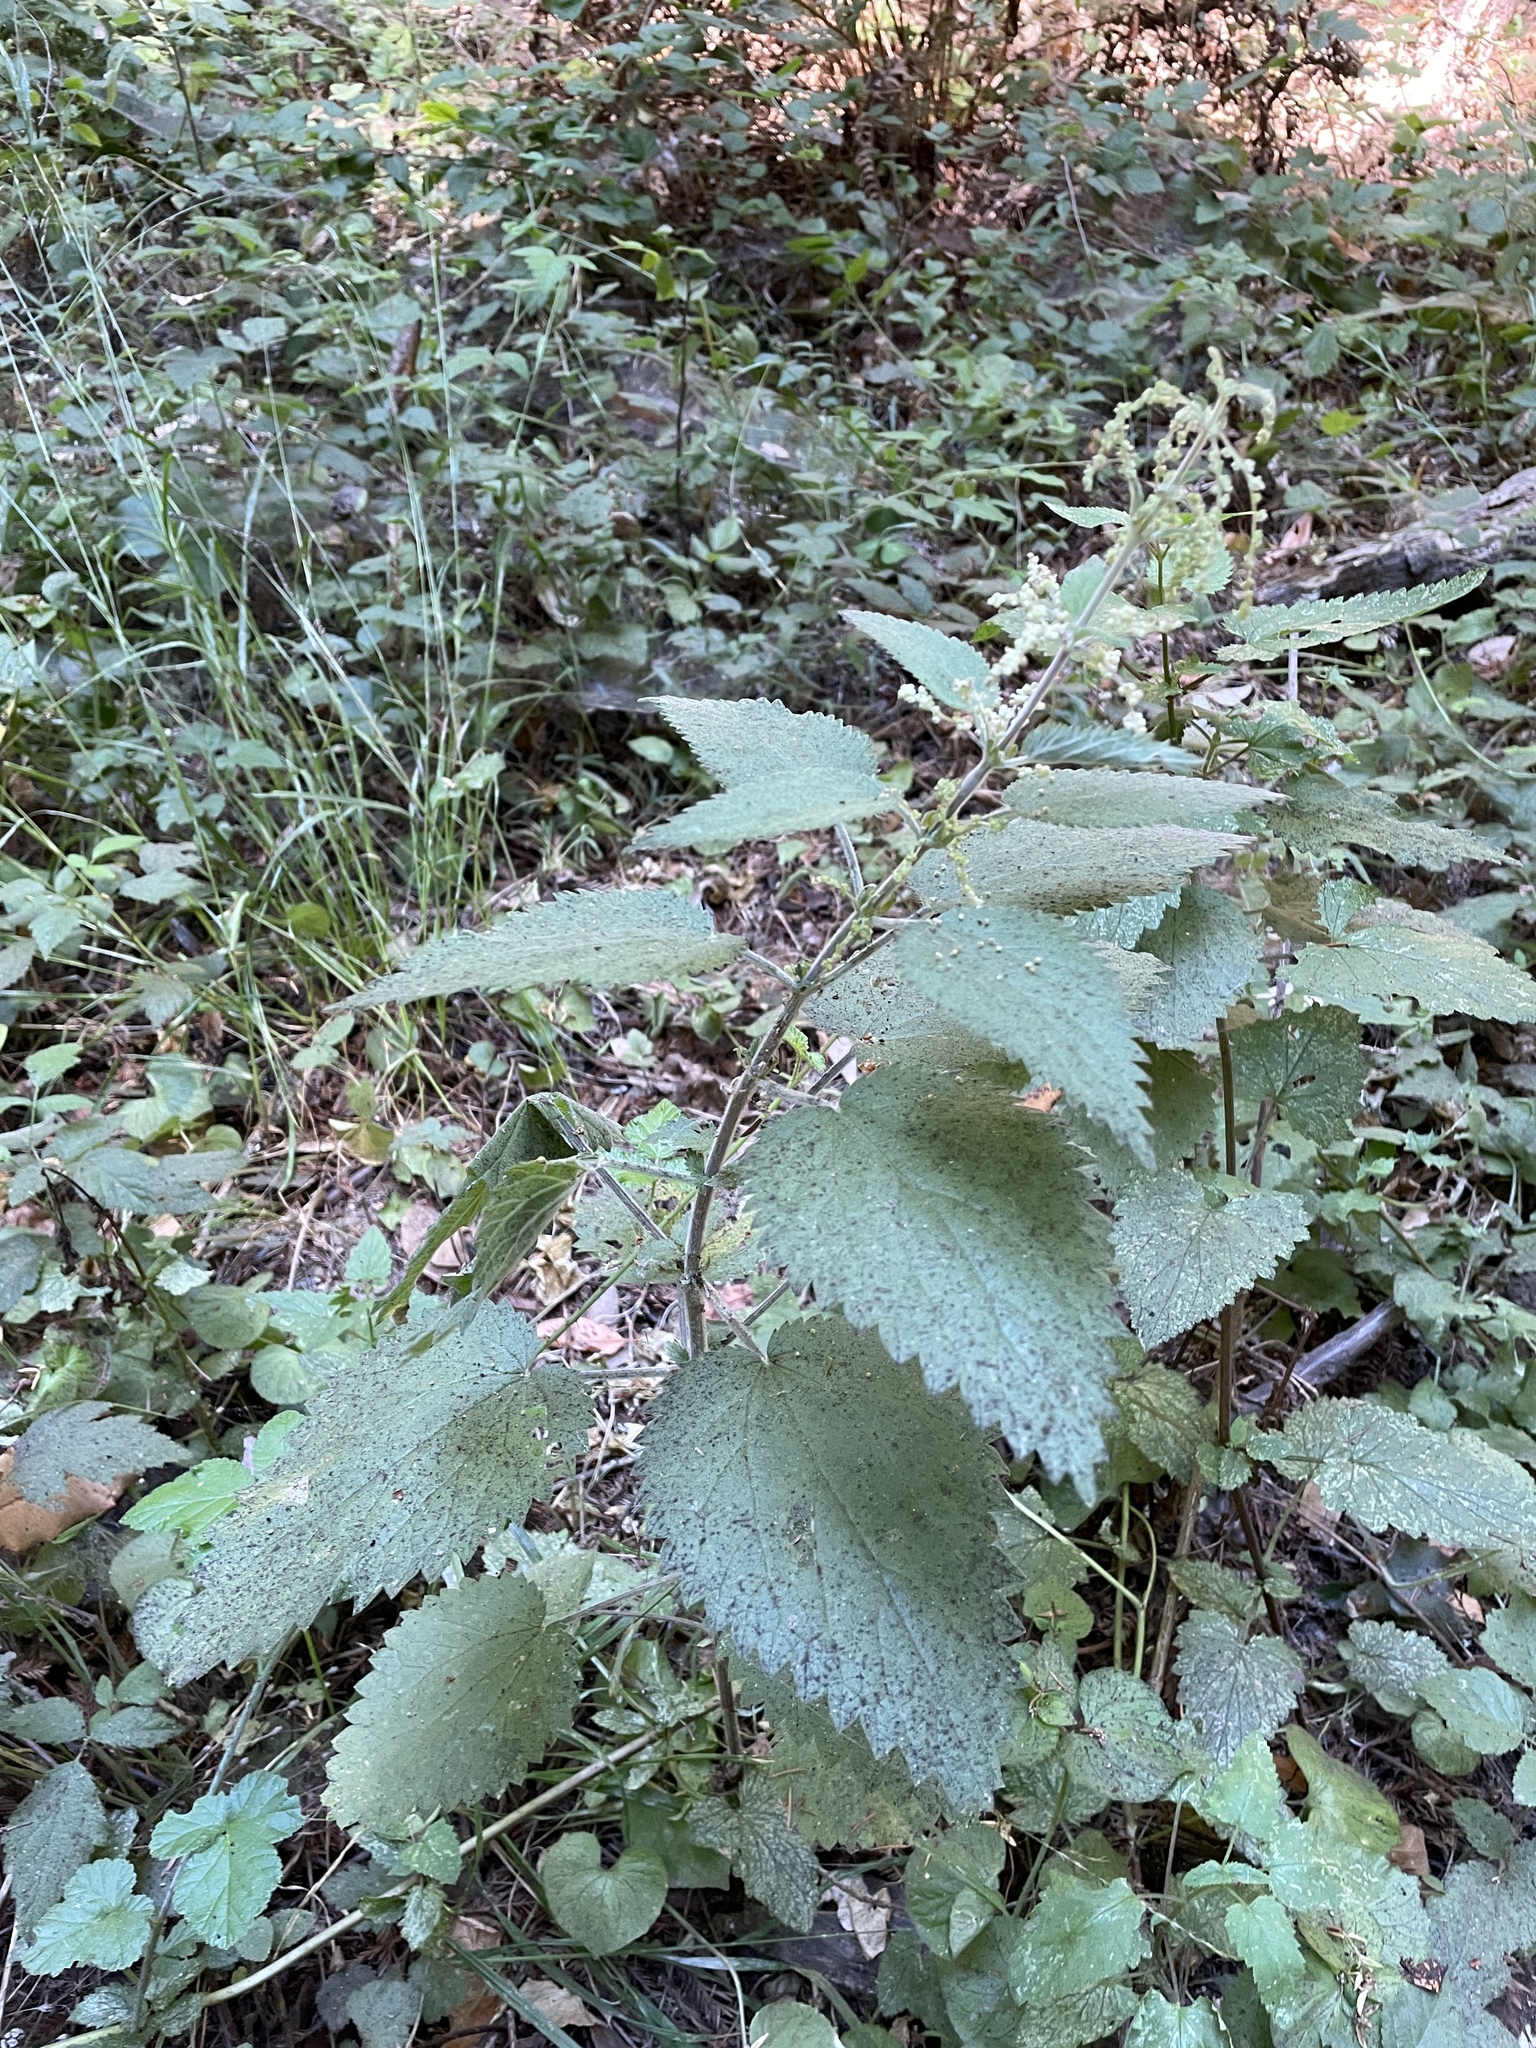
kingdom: Plantae
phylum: Tracheophyta
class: Magnoliopsida
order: Rosales
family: Urticaceae
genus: Urtica
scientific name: Urtica dioica
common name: Common nettle
